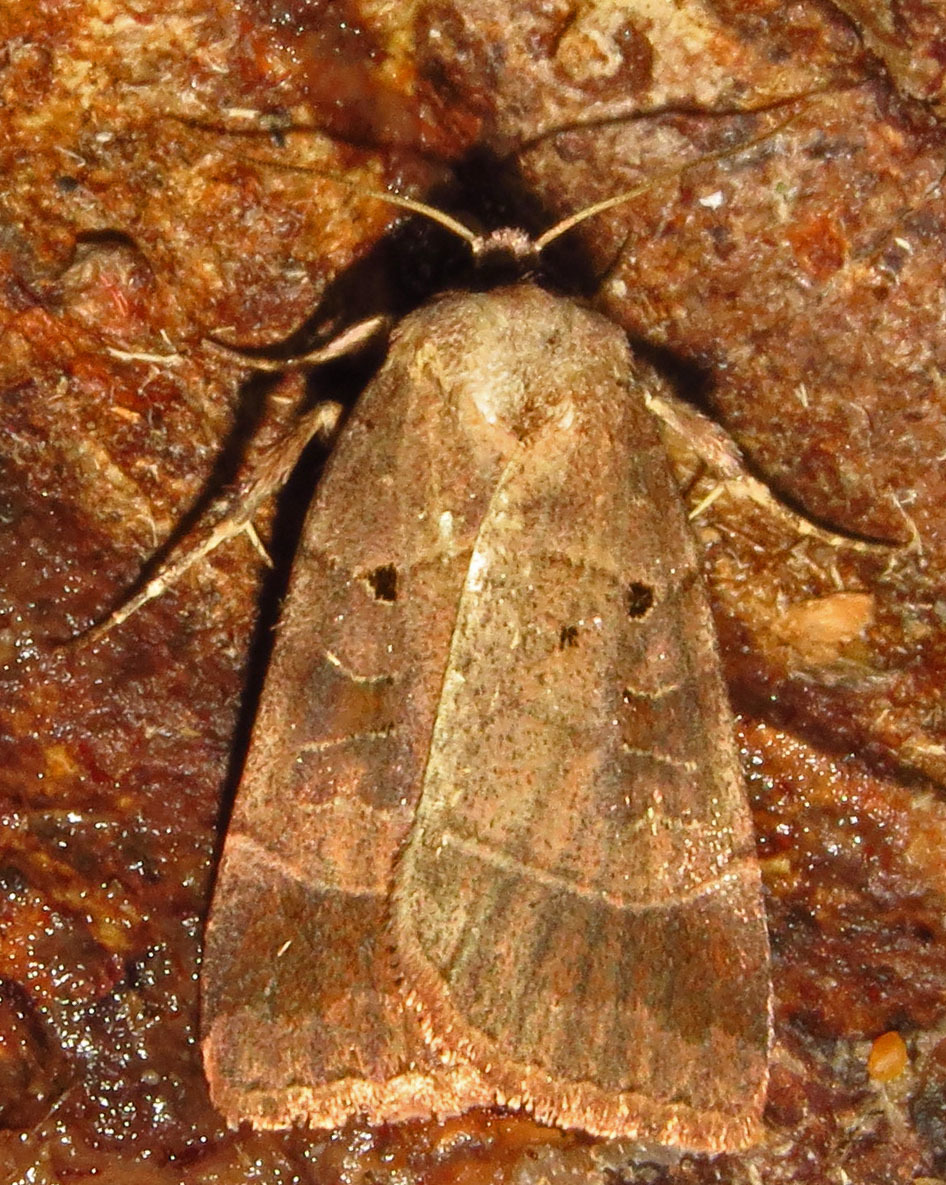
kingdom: Animalia
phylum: Arthropoda
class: Insecta
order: Lepidoptera
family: Noctuidae
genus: Agnorisma
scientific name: Agnorisma badinodis
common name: Pale-banded dart
